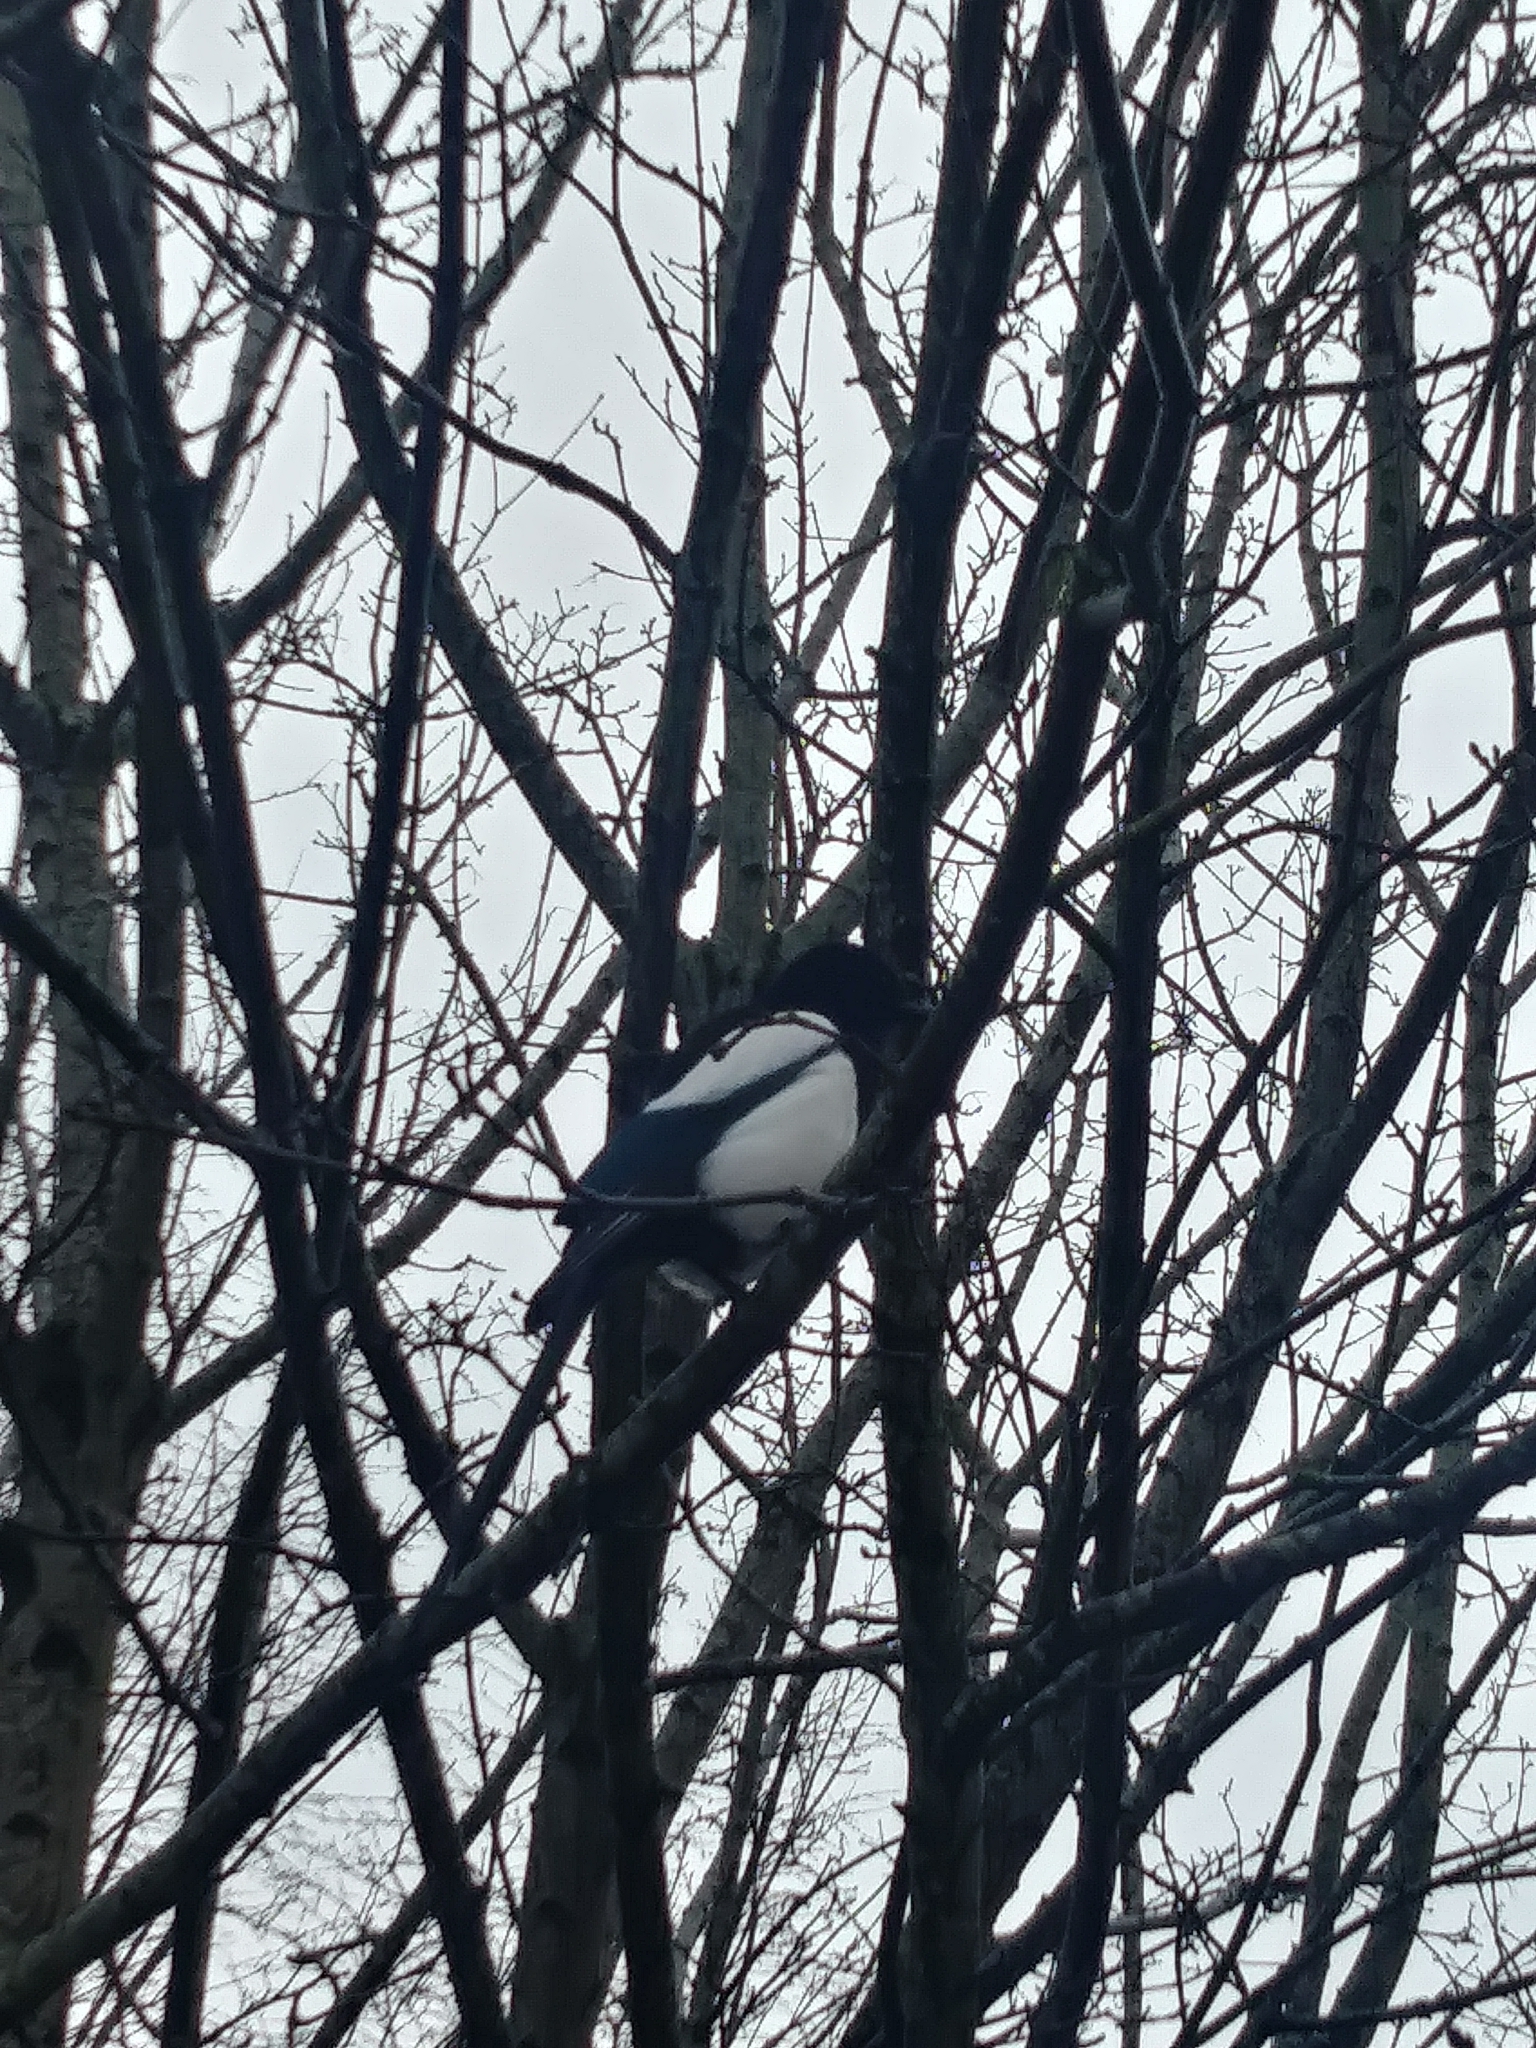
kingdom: Animalia
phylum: Chordata
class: Aves
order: Passeriformes
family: Corvidae
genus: Pica
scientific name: Pica pica
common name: Eurasian magpie
